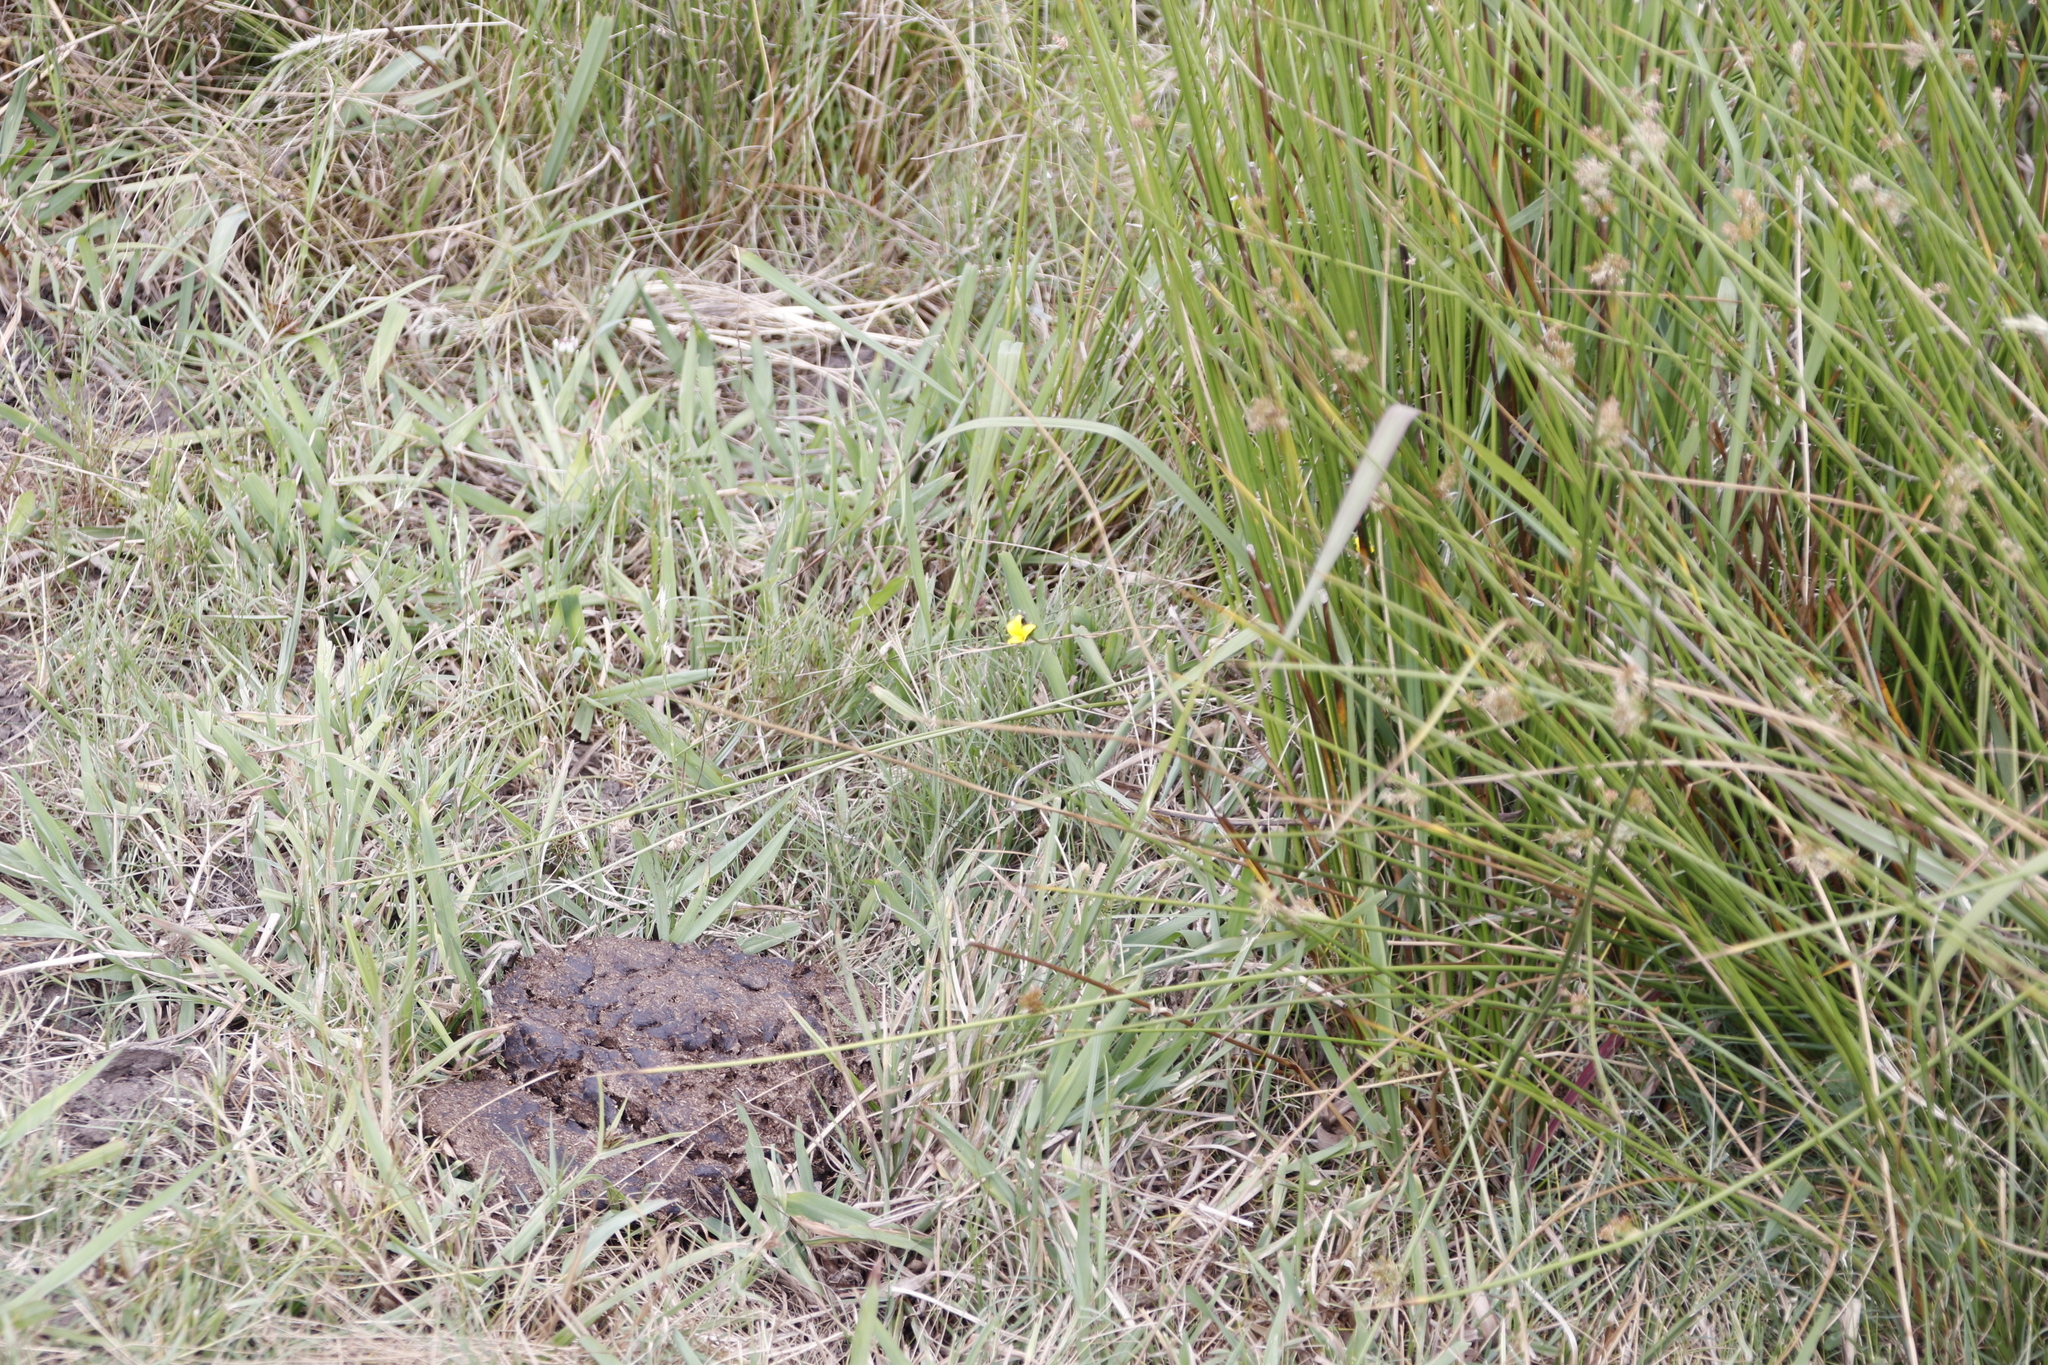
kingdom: Plantae
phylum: Tracheophyta
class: Magnoliopsida
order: Asterales
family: Campanulaceae
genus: Monopsis
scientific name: Monopsis lutea
